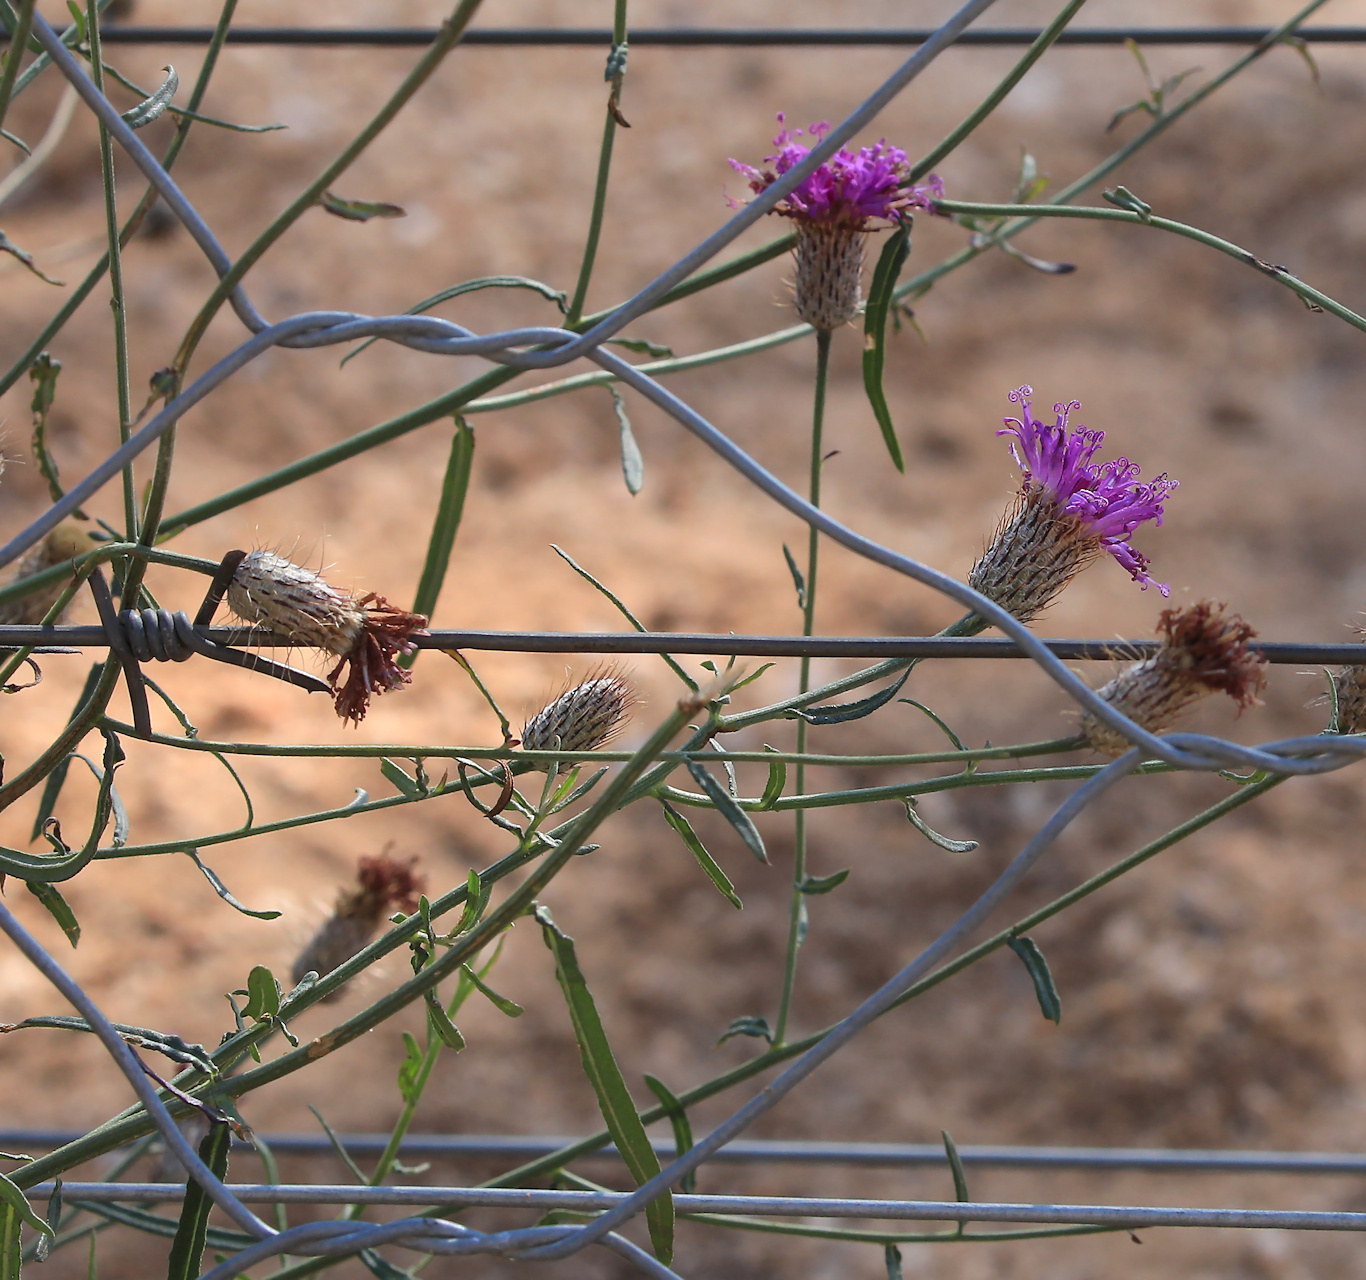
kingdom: Plantae
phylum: Tracheophyta
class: Magnoliopsida
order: Asterales
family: Asteraceae
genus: Parapolydora
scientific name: Parapolydora fastigiata
